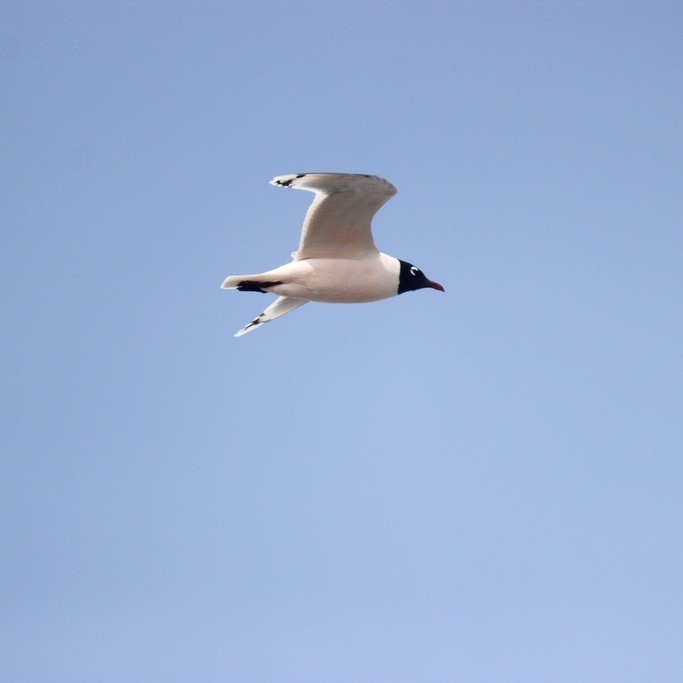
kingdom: Animalia
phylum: Chordata
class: Aves
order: Charadriiformes
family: Laridae
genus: Leucophaeus
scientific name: Leucophaeus pipixcan
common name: Franklin's gull
